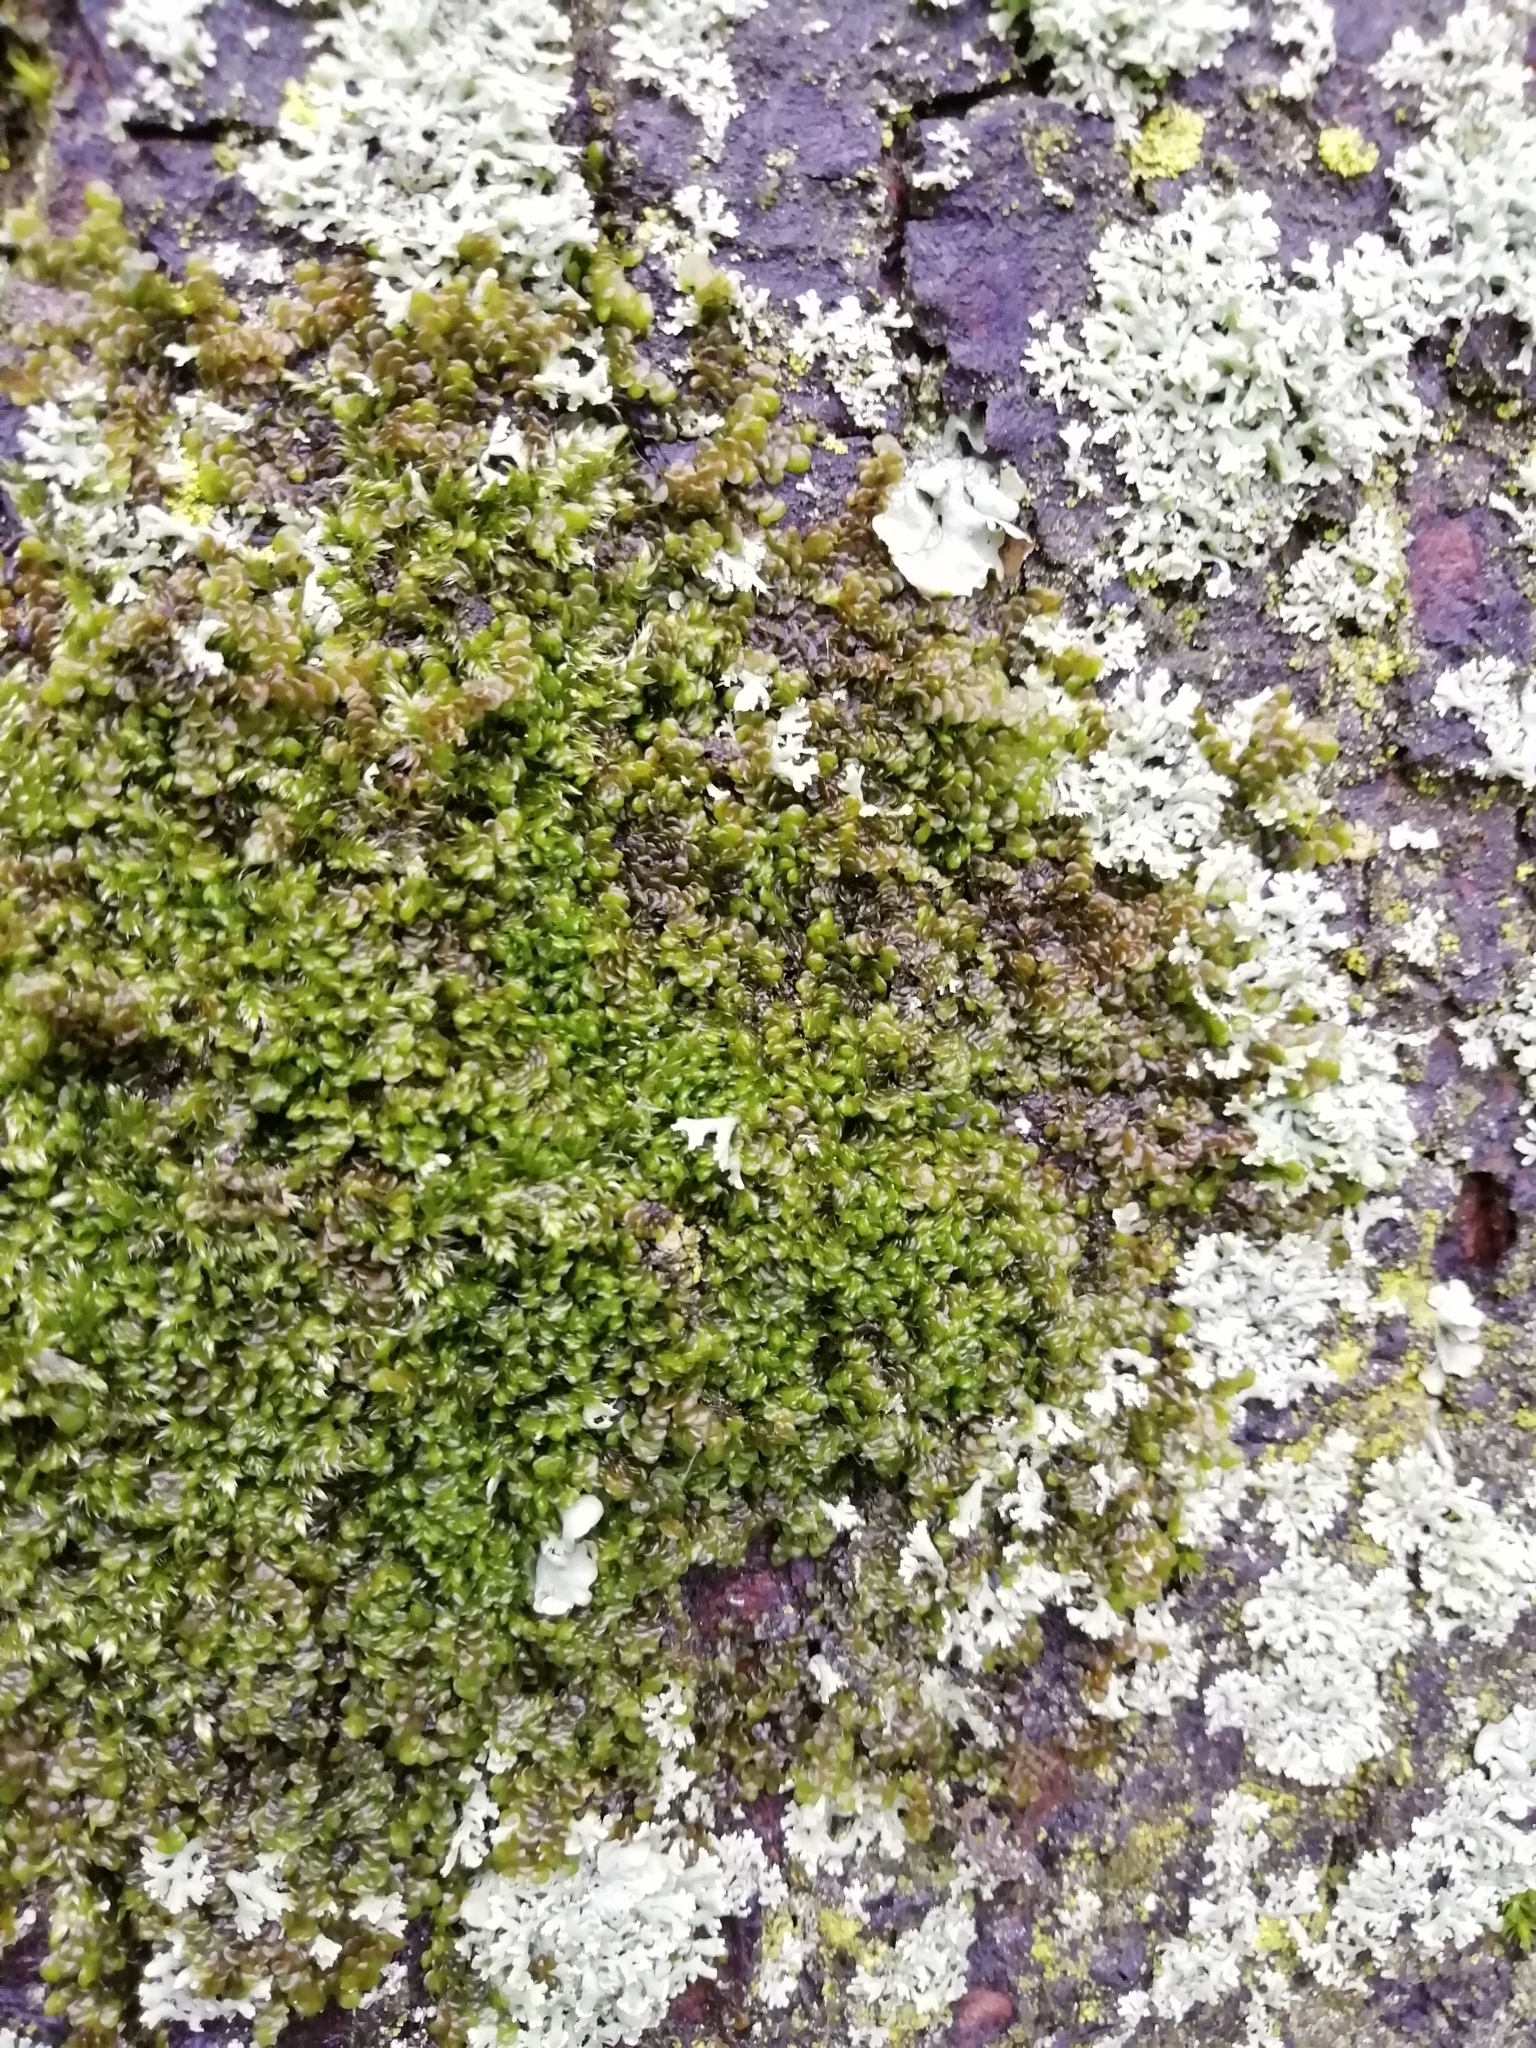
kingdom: Plantae
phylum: Marchantiophyta
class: Jungermanniopsida
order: Porellales
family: Frullaniaceae
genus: Frullania
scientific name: Frullania dilatata
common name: Dilated scalewort
